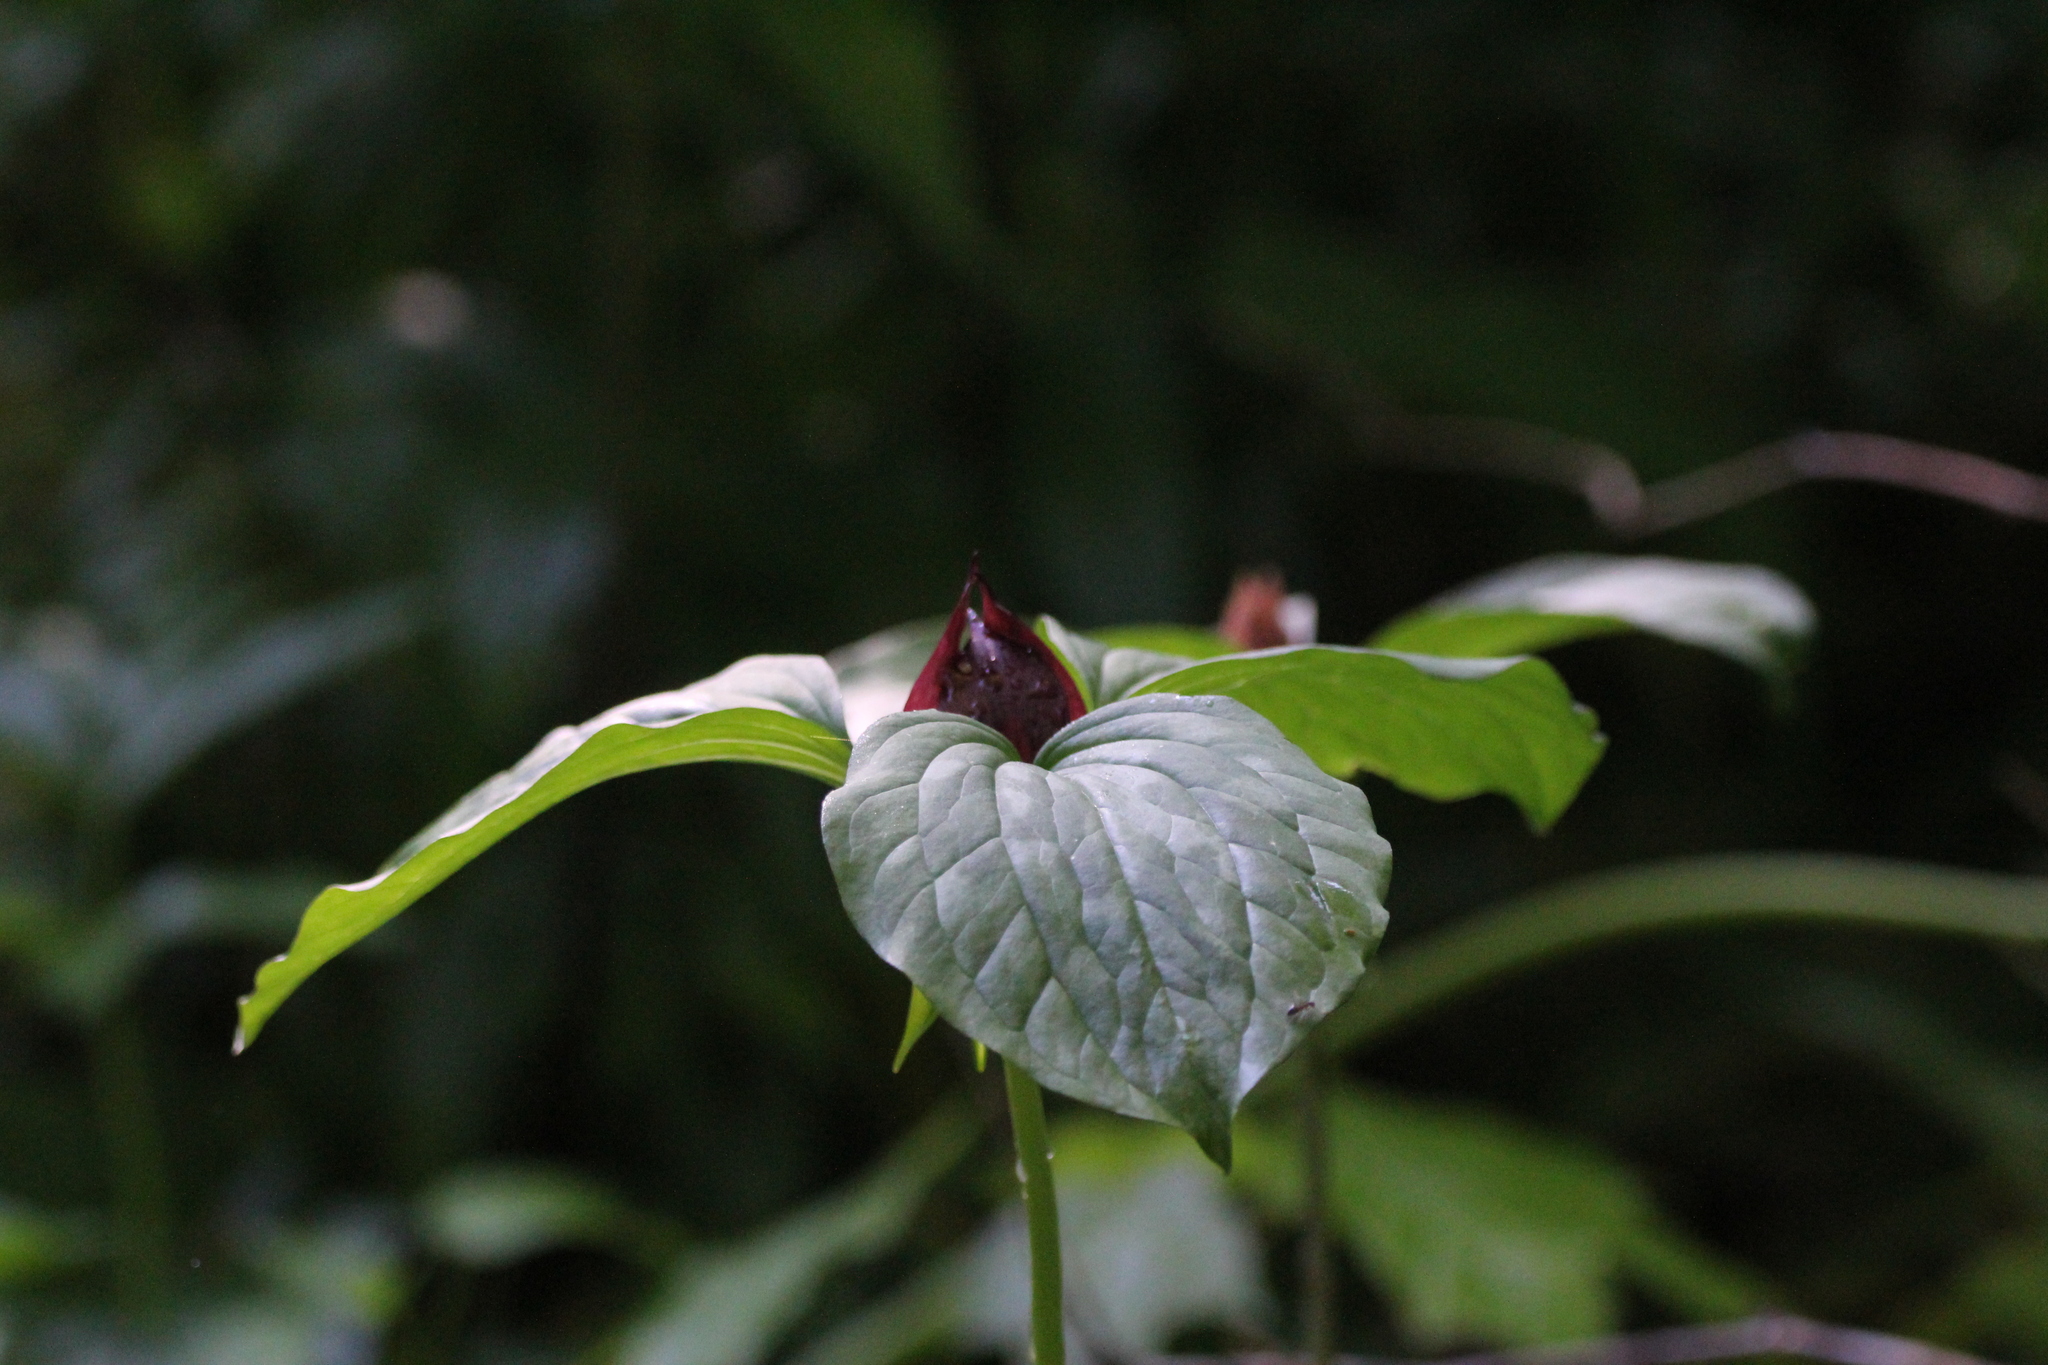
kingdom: Plantae
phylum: Tracheophyta
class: Liliopsida
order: Liliales
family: Melanthiaceae
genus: Trillium
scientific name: Trillium recurvatum
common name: Bloody butcher
